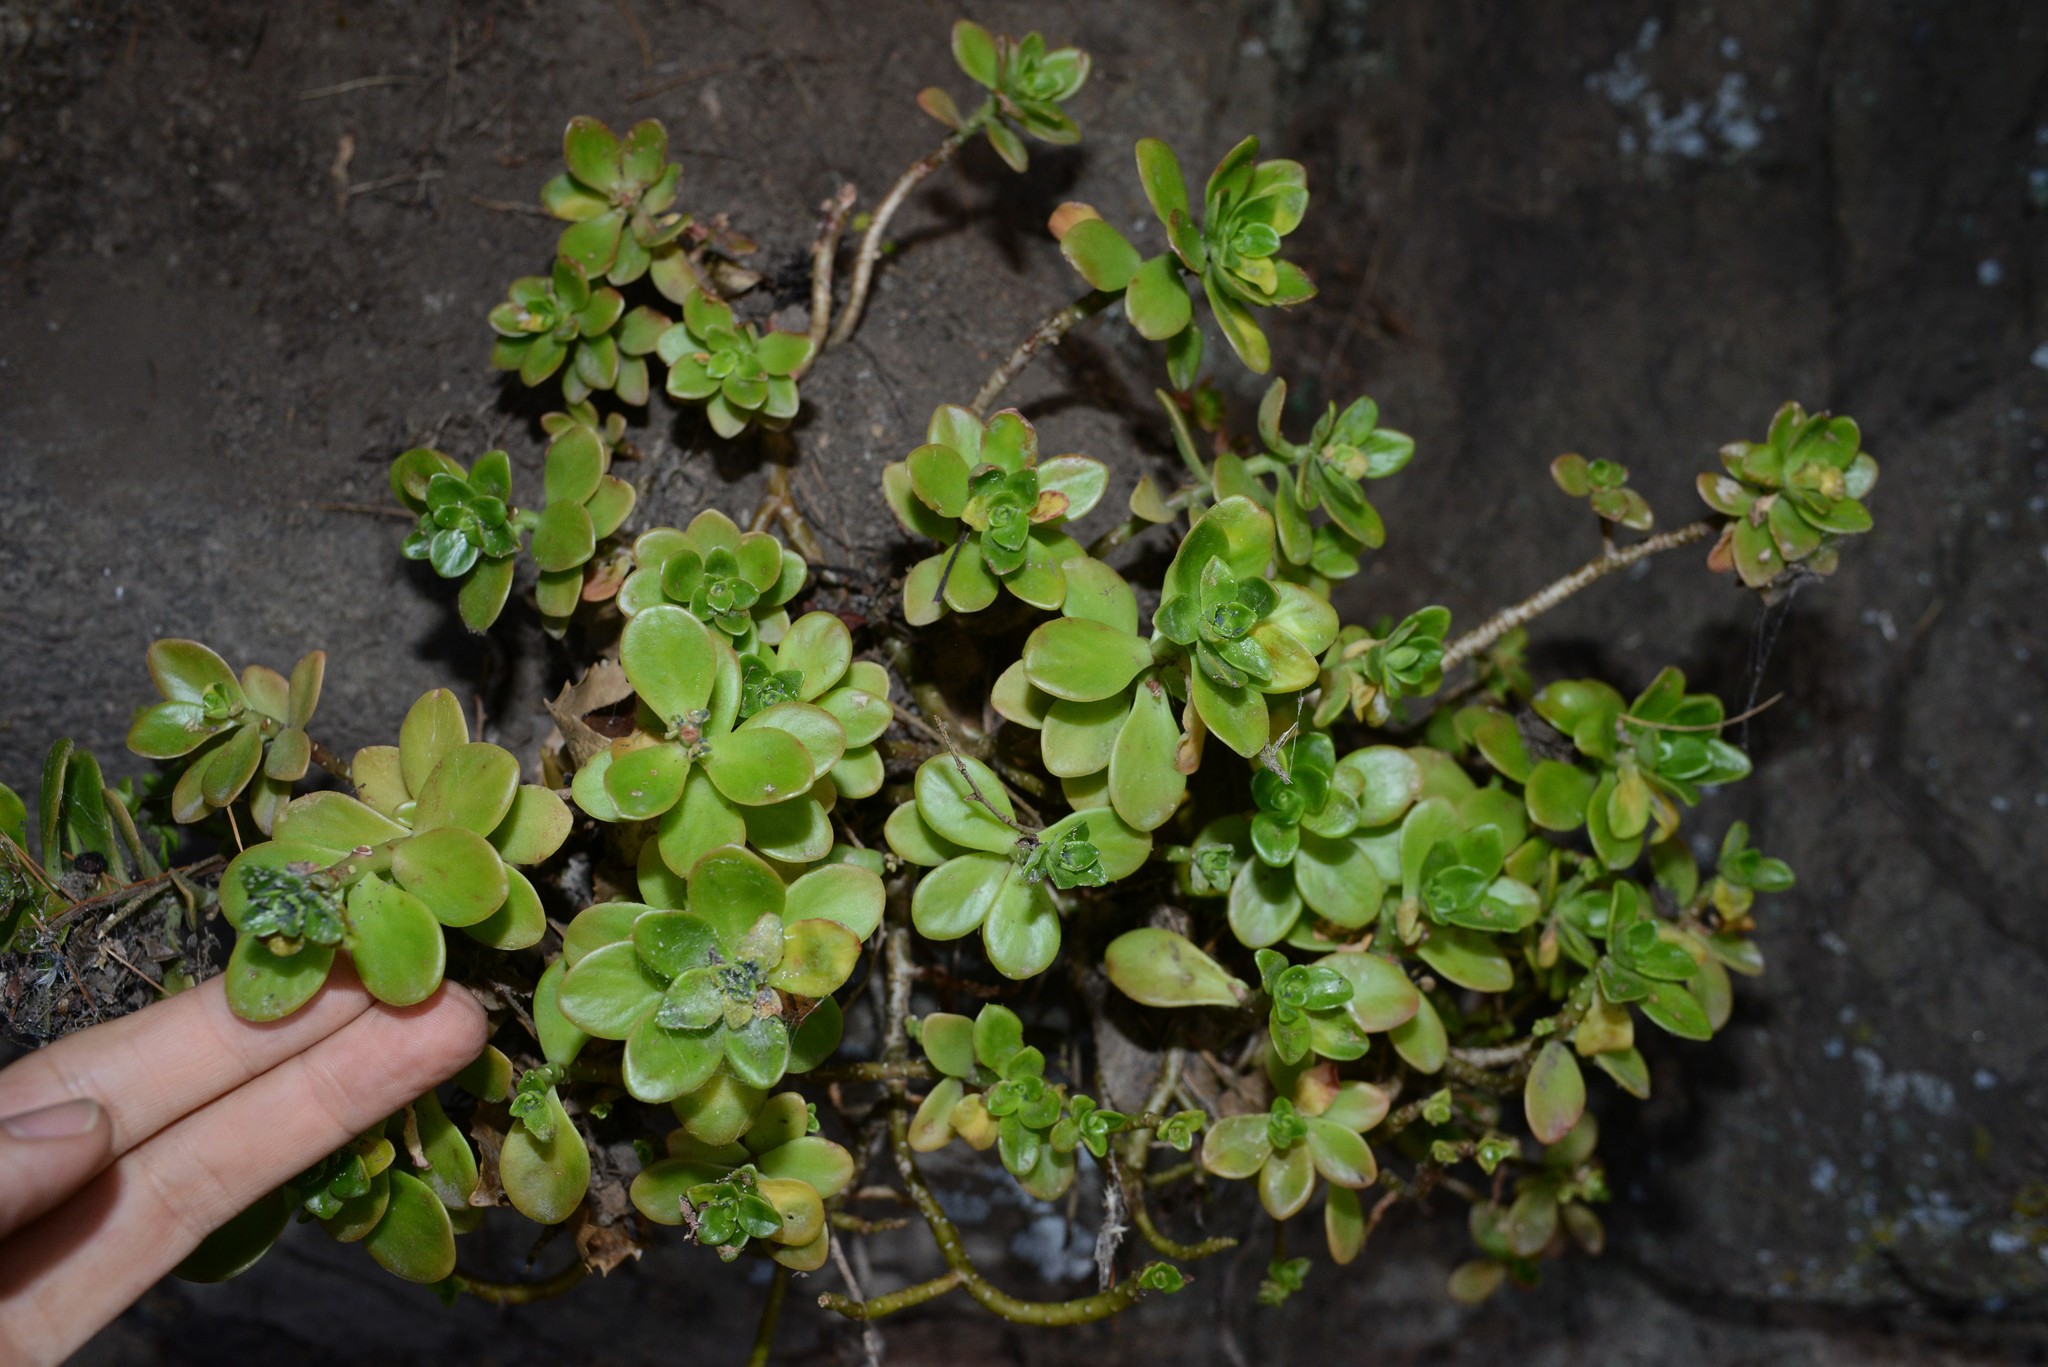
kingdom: Plantae
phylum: Tracheophyta
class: Magnoliopsida
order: Saxifragales
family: Crassulaceae
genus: Sedum
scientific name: Sedum kimnachii
